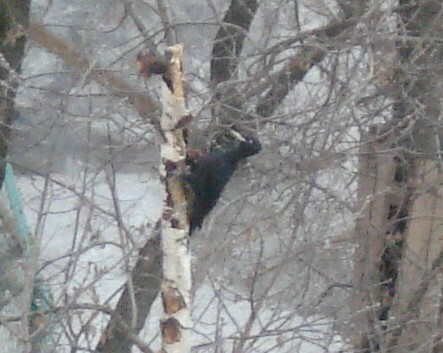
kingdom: Animalia
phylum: Chordata
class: Aves
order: Piciformes
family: Picidae
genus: Dryocopus
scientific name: Dryocopus martius
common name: Black woodpecker
